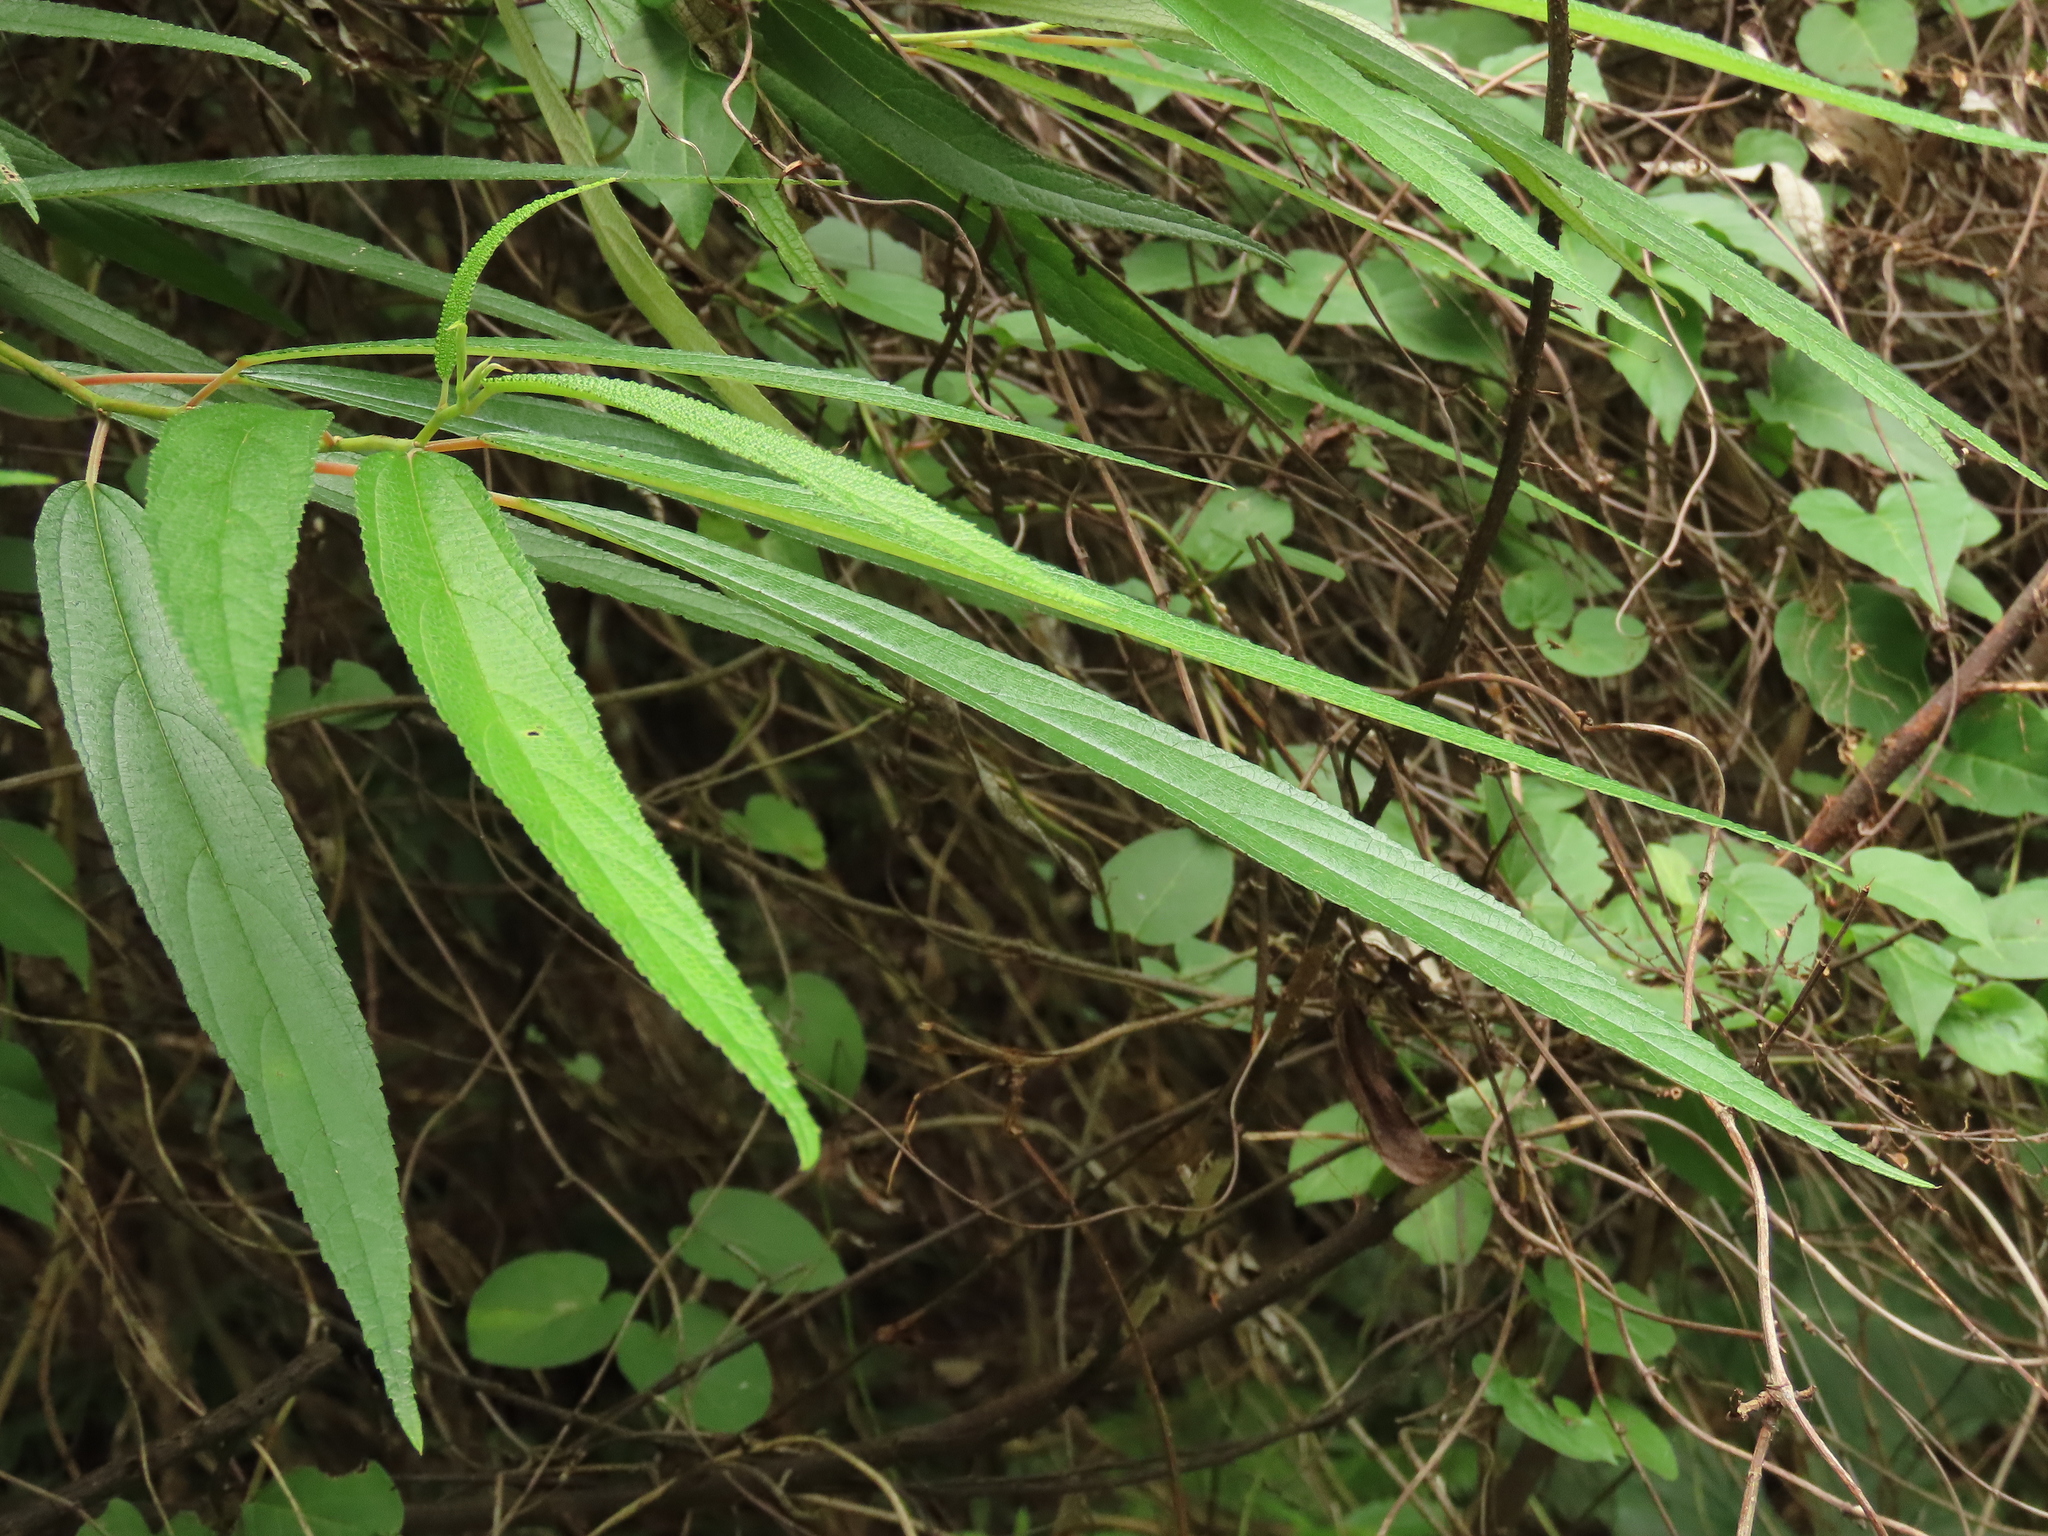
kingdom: Plantae
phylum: Tracheophyta
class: Magnoliopsida
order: Rosales
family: Urticaceae
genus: Debregeasia
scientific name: Debregeasia orientalis
